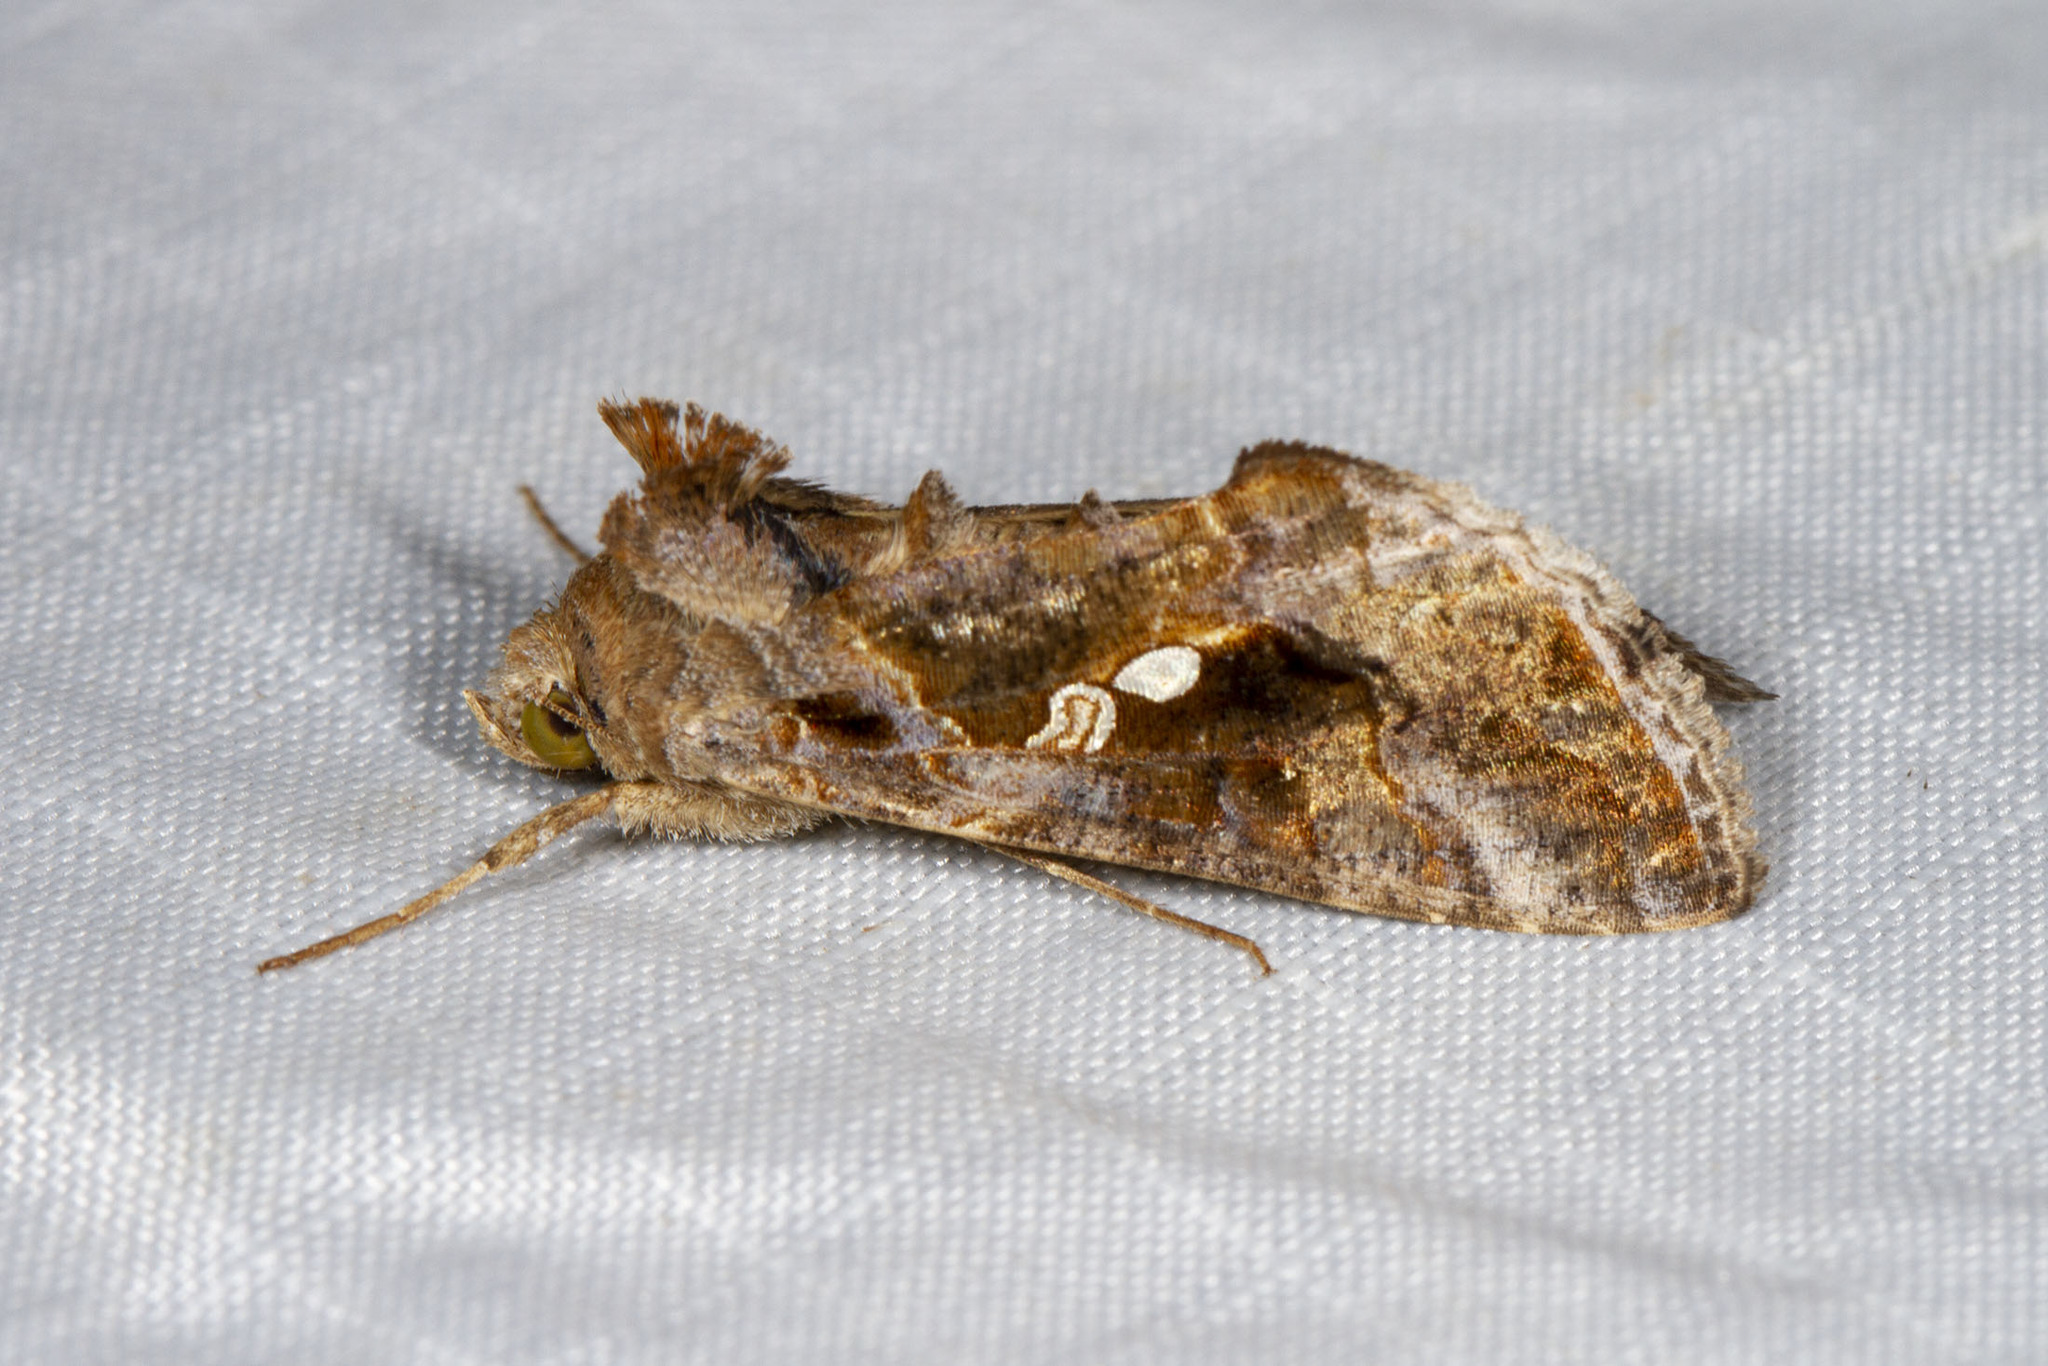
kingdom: Animalia
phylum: Arthropoda
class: Insecta
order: Lepidoptera
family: Noctuidae
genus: Chrysodeixis
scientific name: Chrysodeixis includens
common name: Cutworm moth
